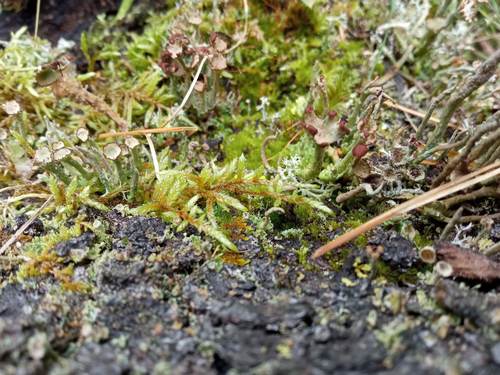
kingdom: Fungi
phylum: Ascomycota
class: Lecanoromycetes
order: Lecanorales
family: Cladoniaceae
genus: Cladonia
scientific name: Cladonia gracilis
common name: Smooth clad lichen
